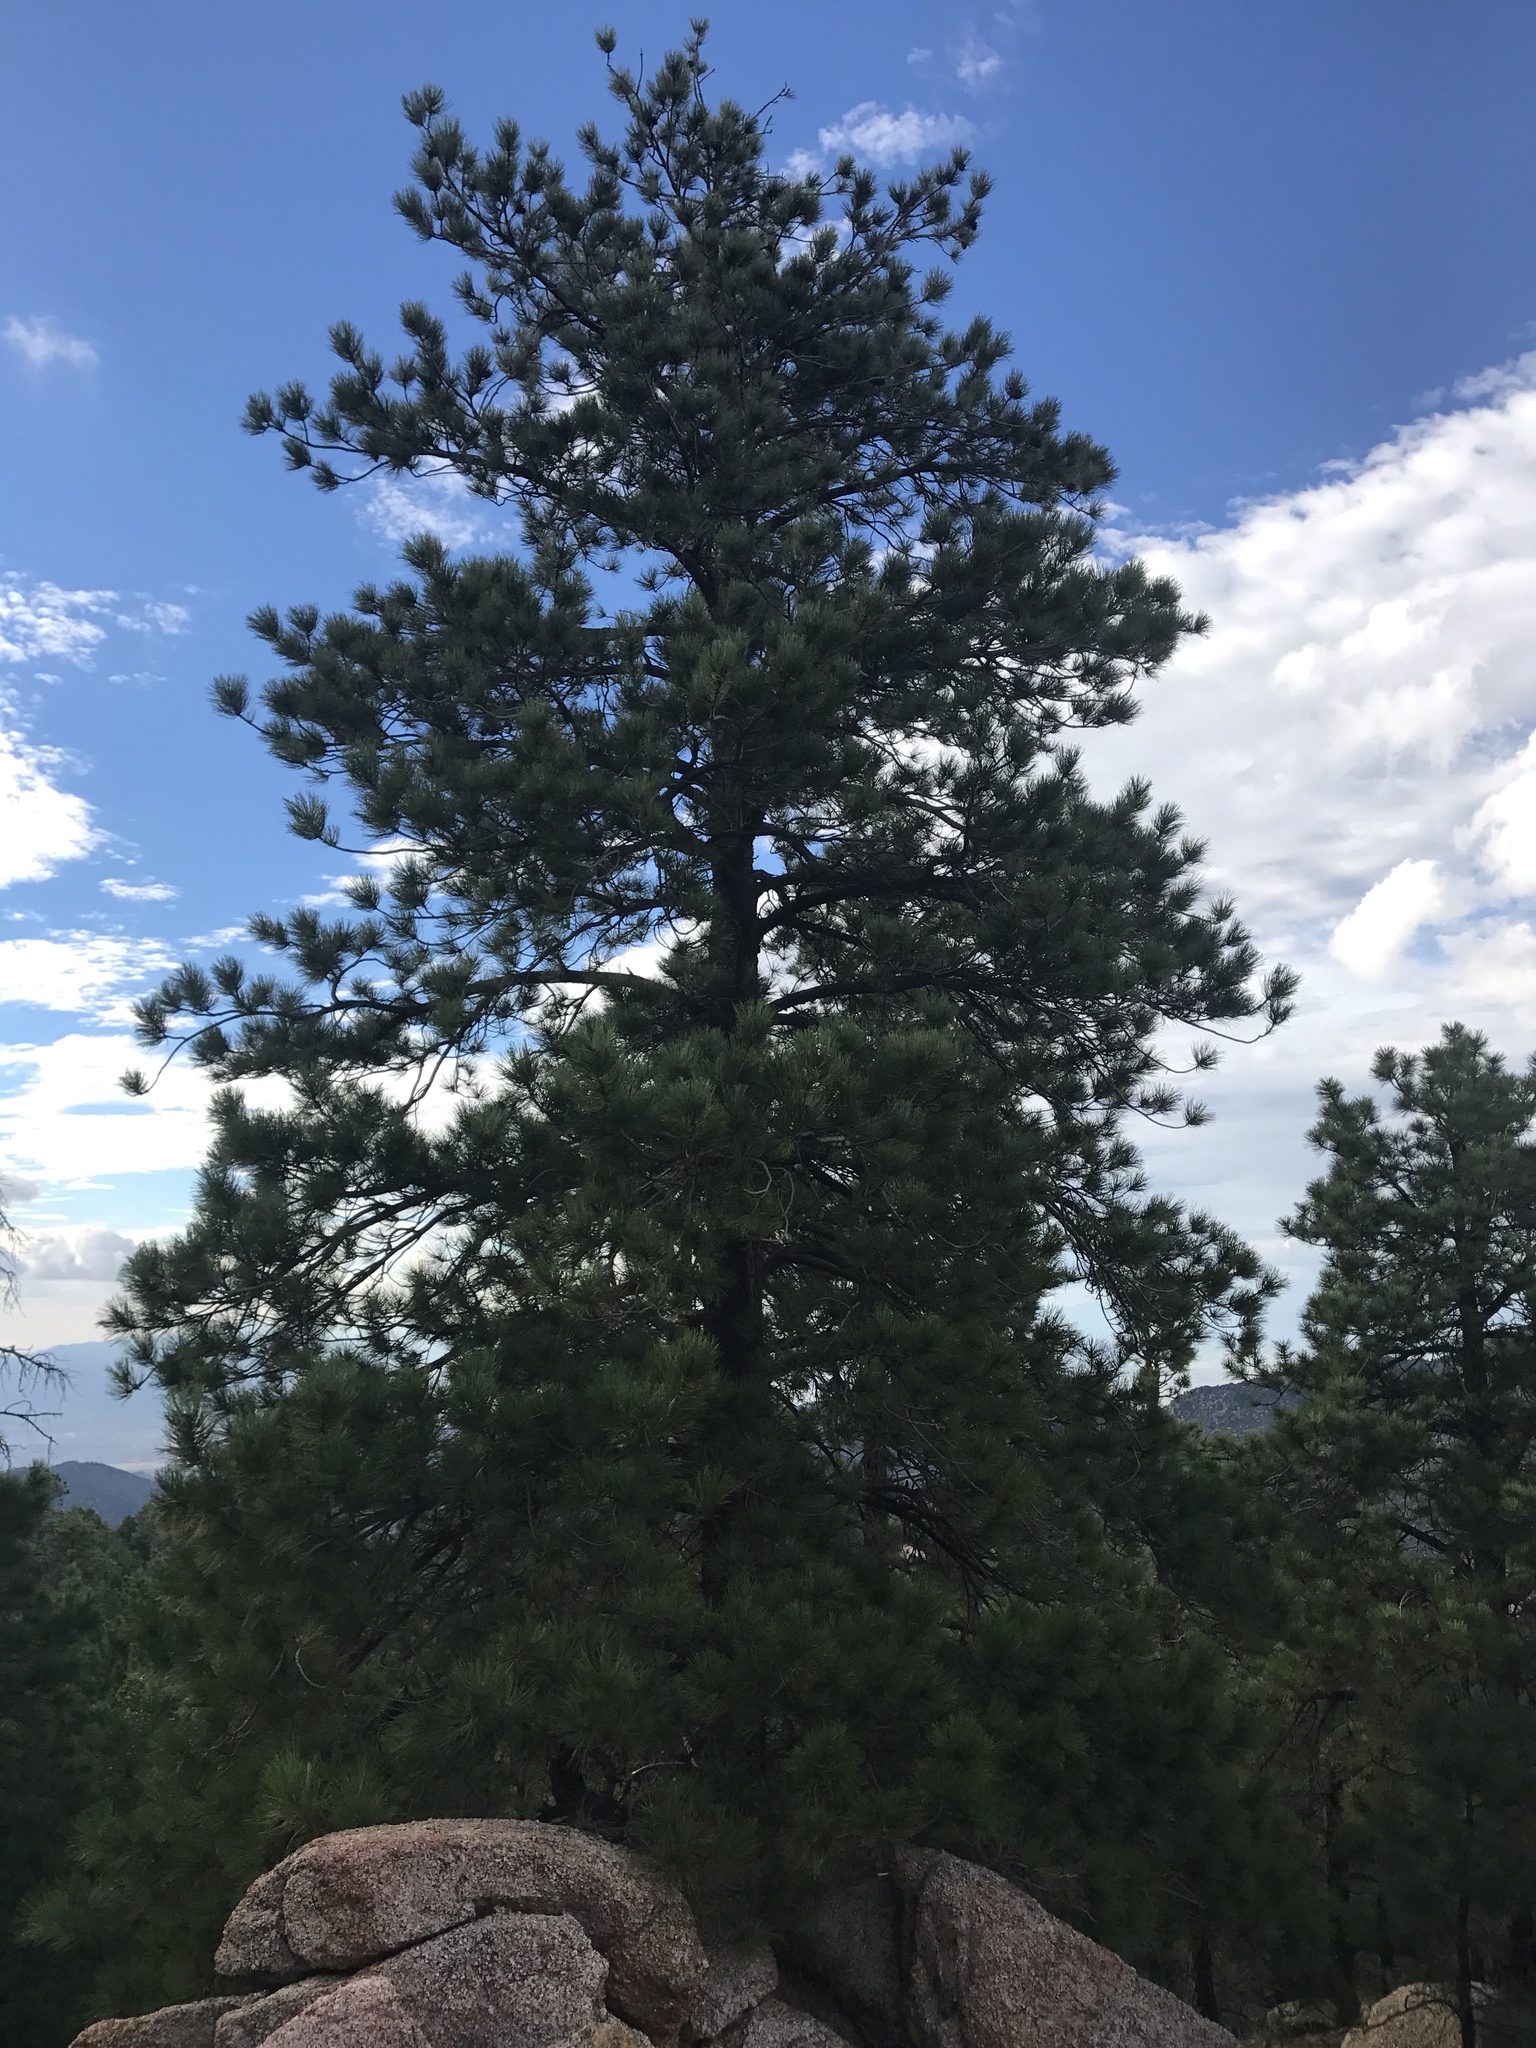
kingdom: Plantae
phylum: Tracheophyta
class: Pinopsida
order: Pinales
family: Pinaceae
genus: Pinus
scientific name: Pinus ponderosa
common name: Western yellow-pine
